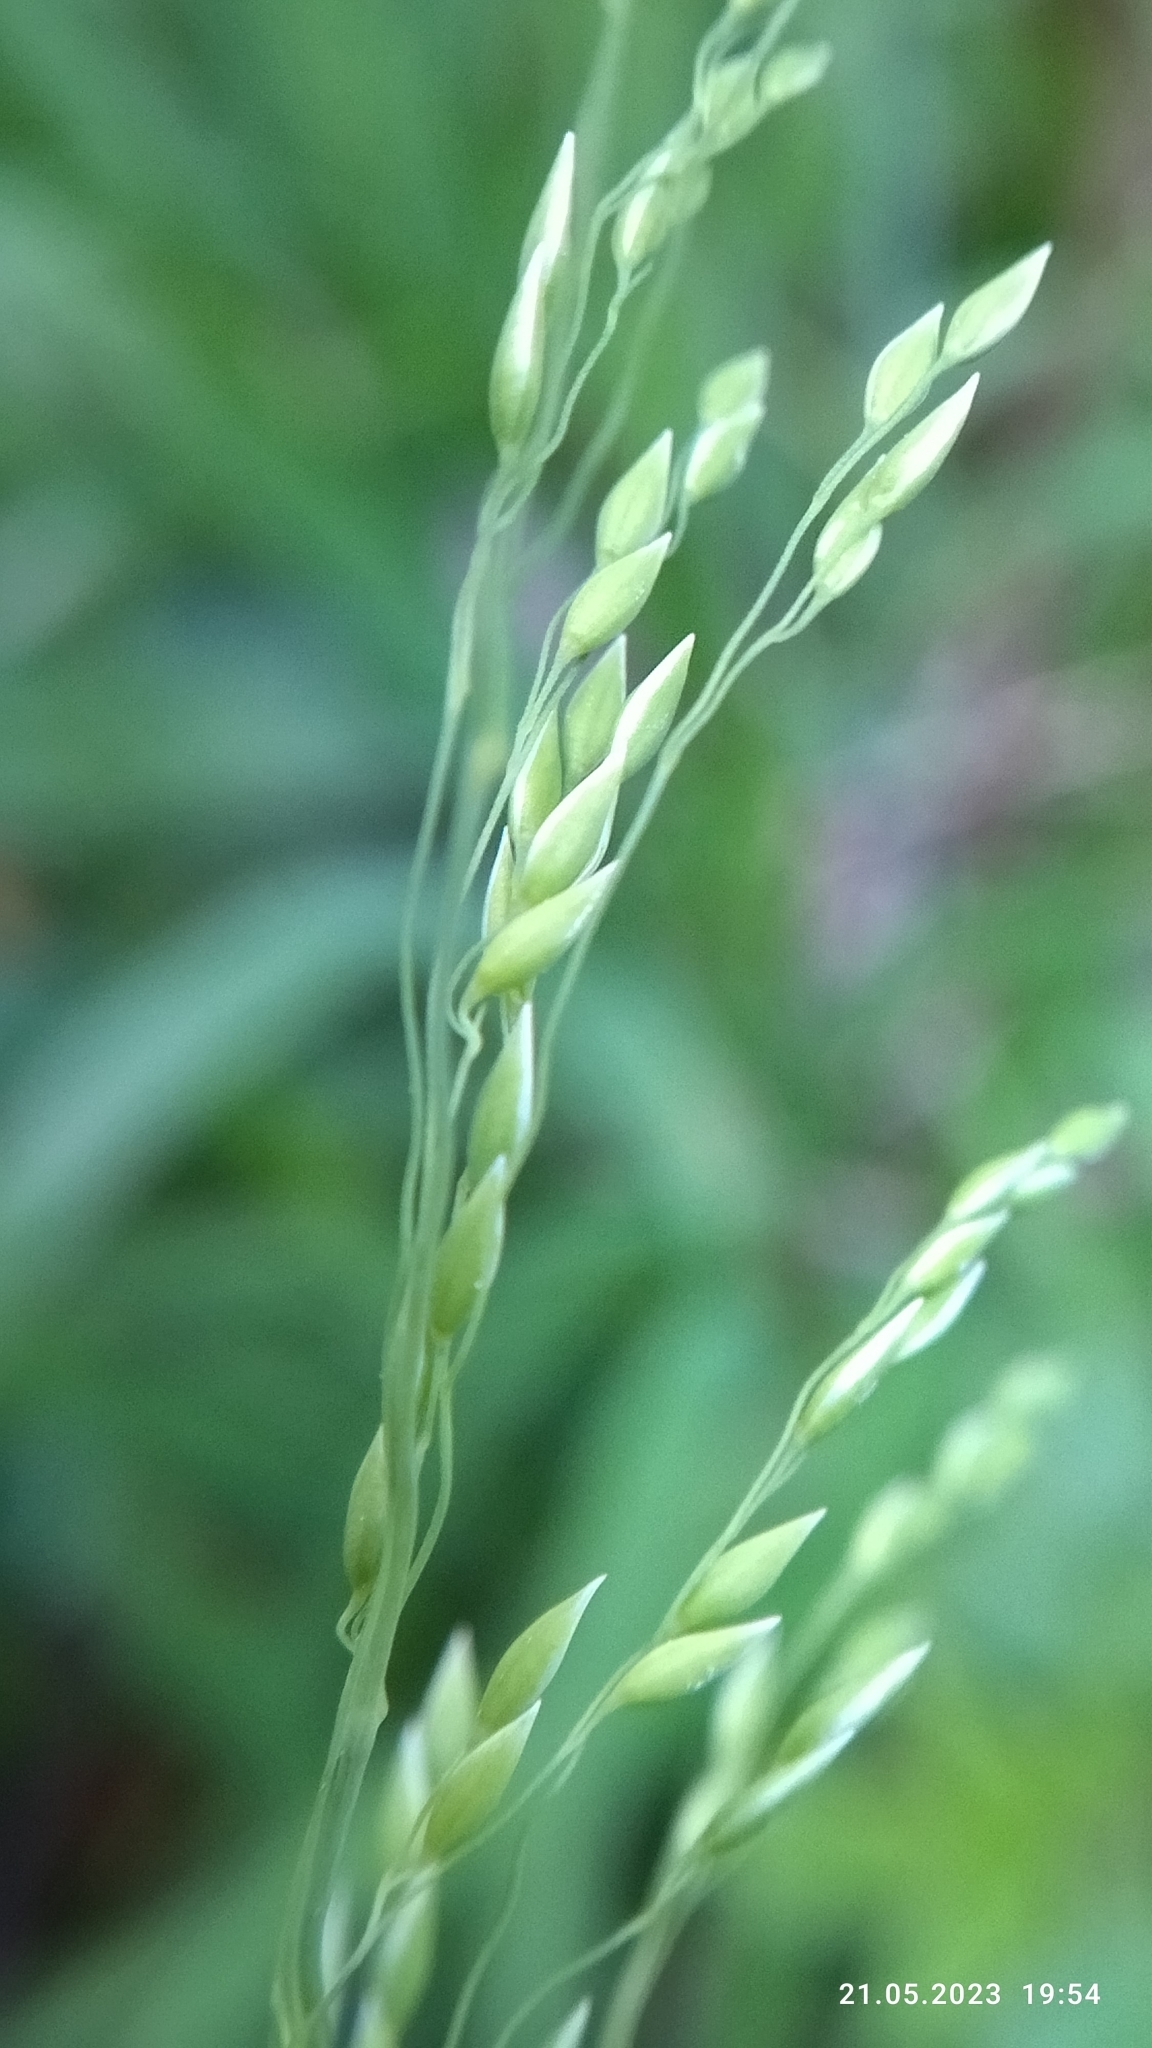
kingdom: Plantae
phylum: Tracheophyta
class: Liliopsida
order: Poales
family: Poaceae
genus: Milium
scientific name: Milium effusum
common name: Wood millet
